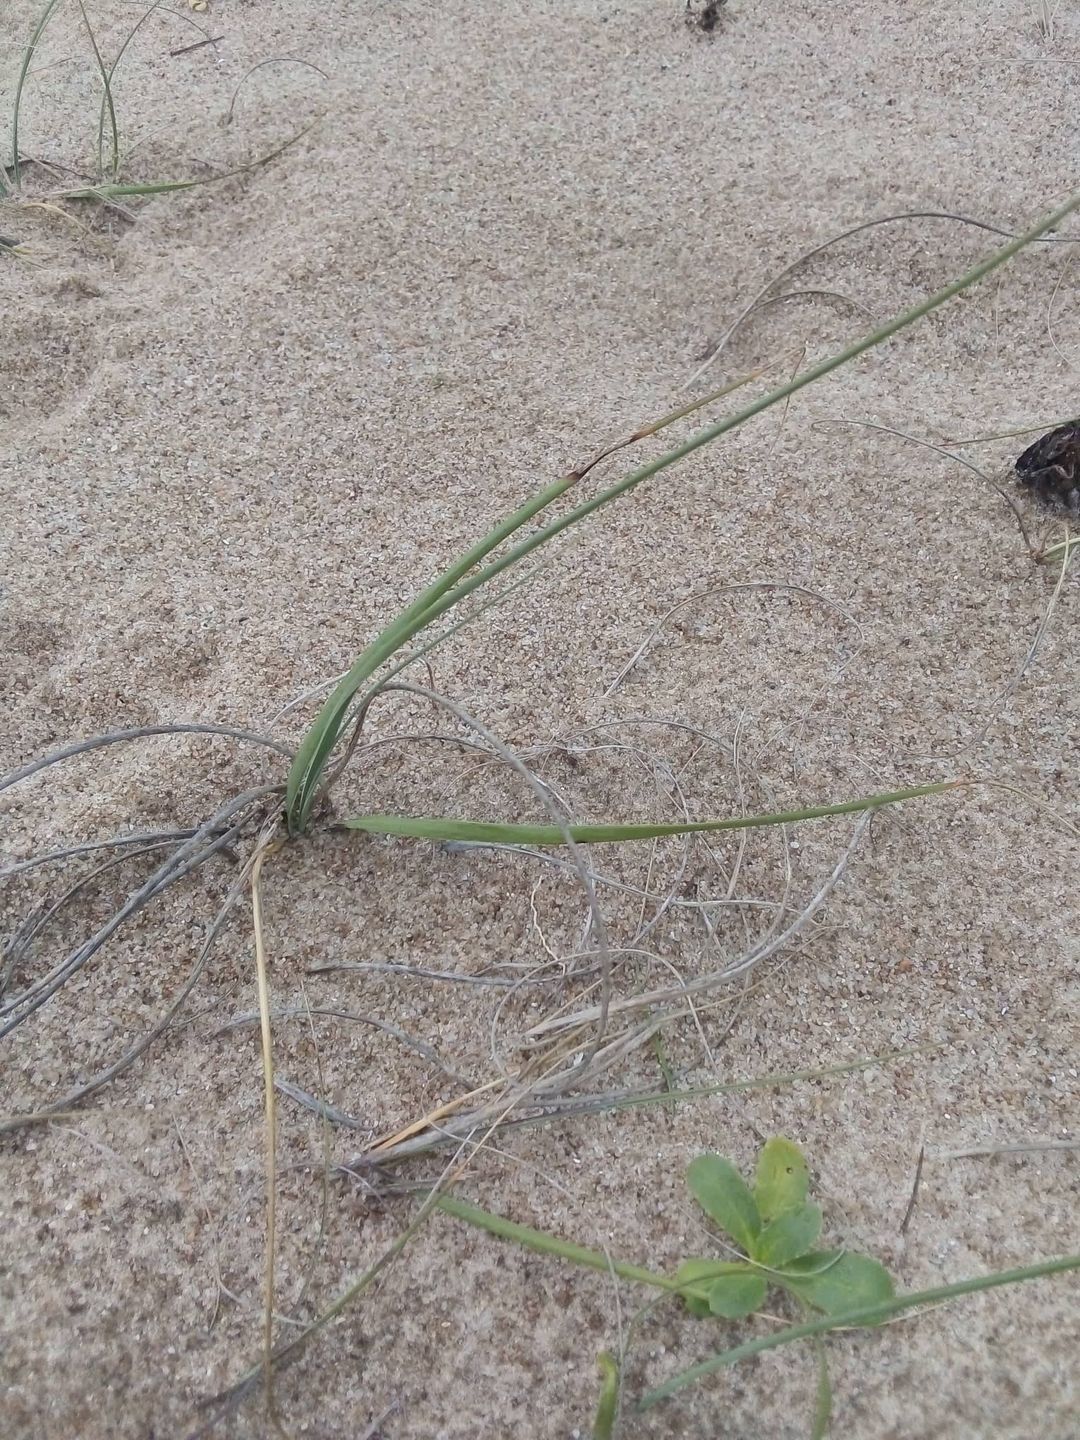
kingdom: Plantae
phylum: Tracheophyta
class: Liliopsida
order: Poales
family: Poaceae
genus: Panicum
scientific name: Panicum racemosum
